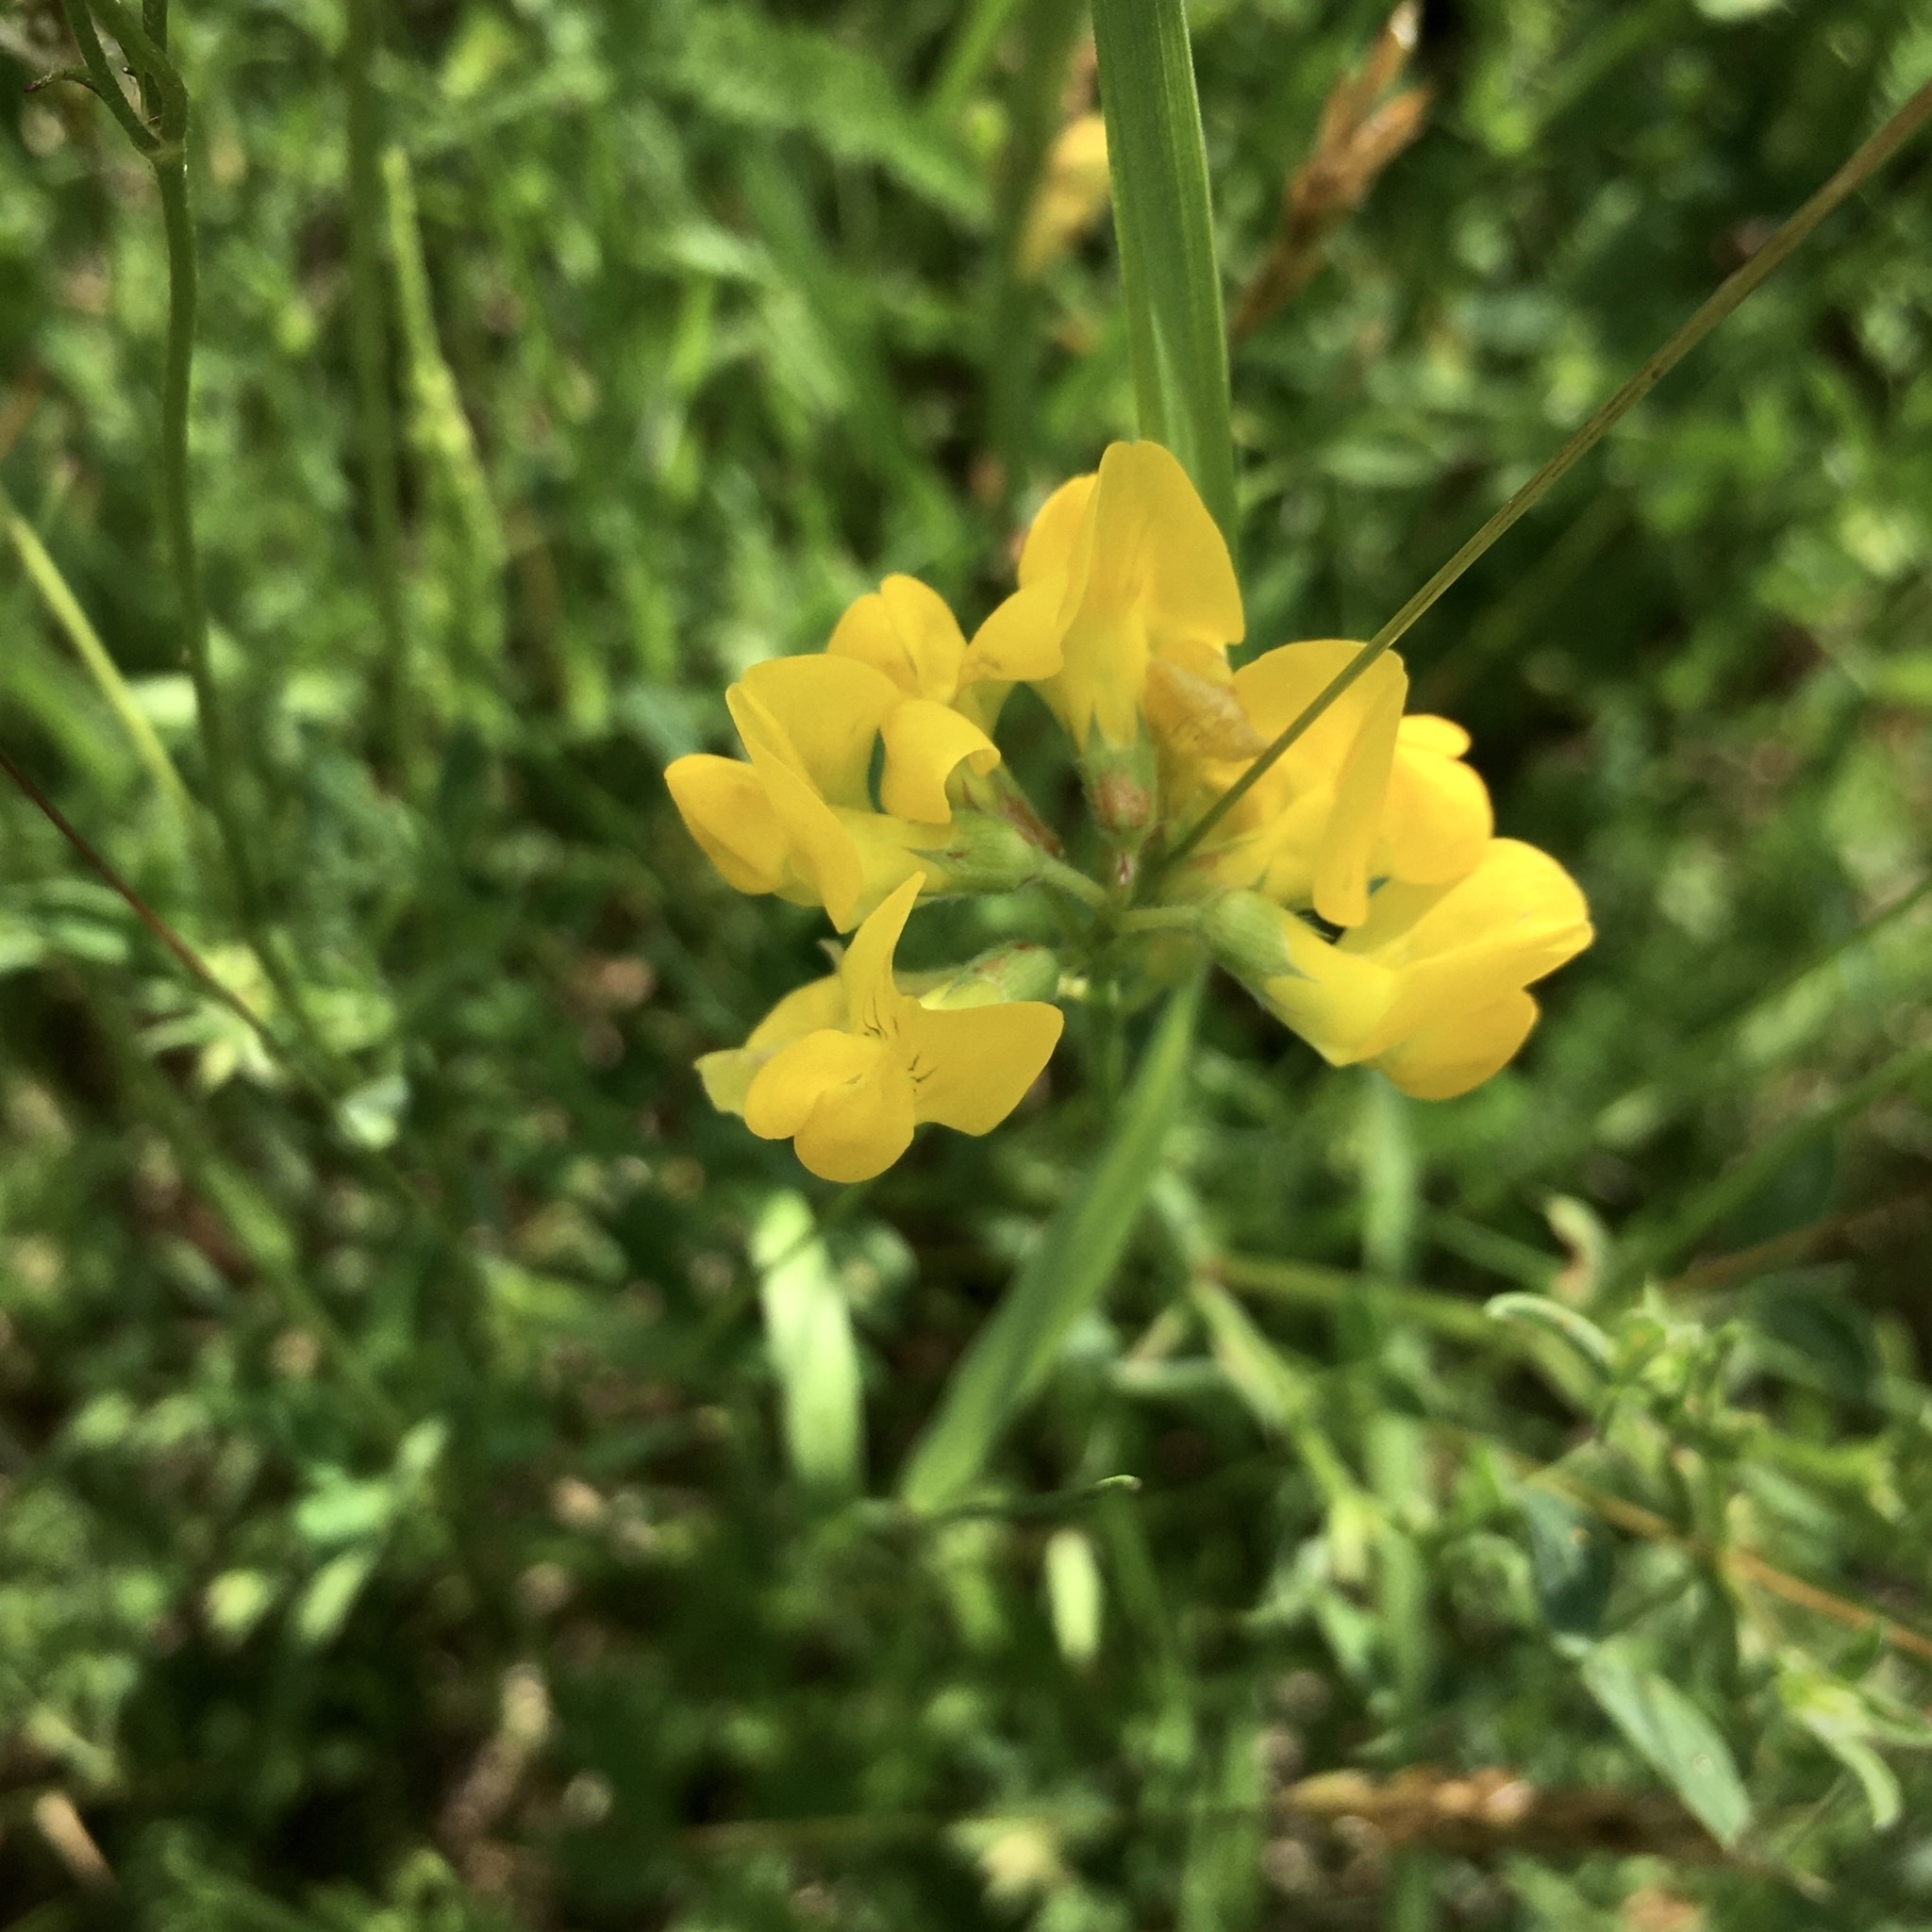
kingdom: Plantae
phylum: Tracheophyta
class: Magnoliopsida
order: Fabales
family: Fabaceae
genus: Lotus
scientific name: Lotus corniculatus
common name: Common bird's-foot-trefoil
